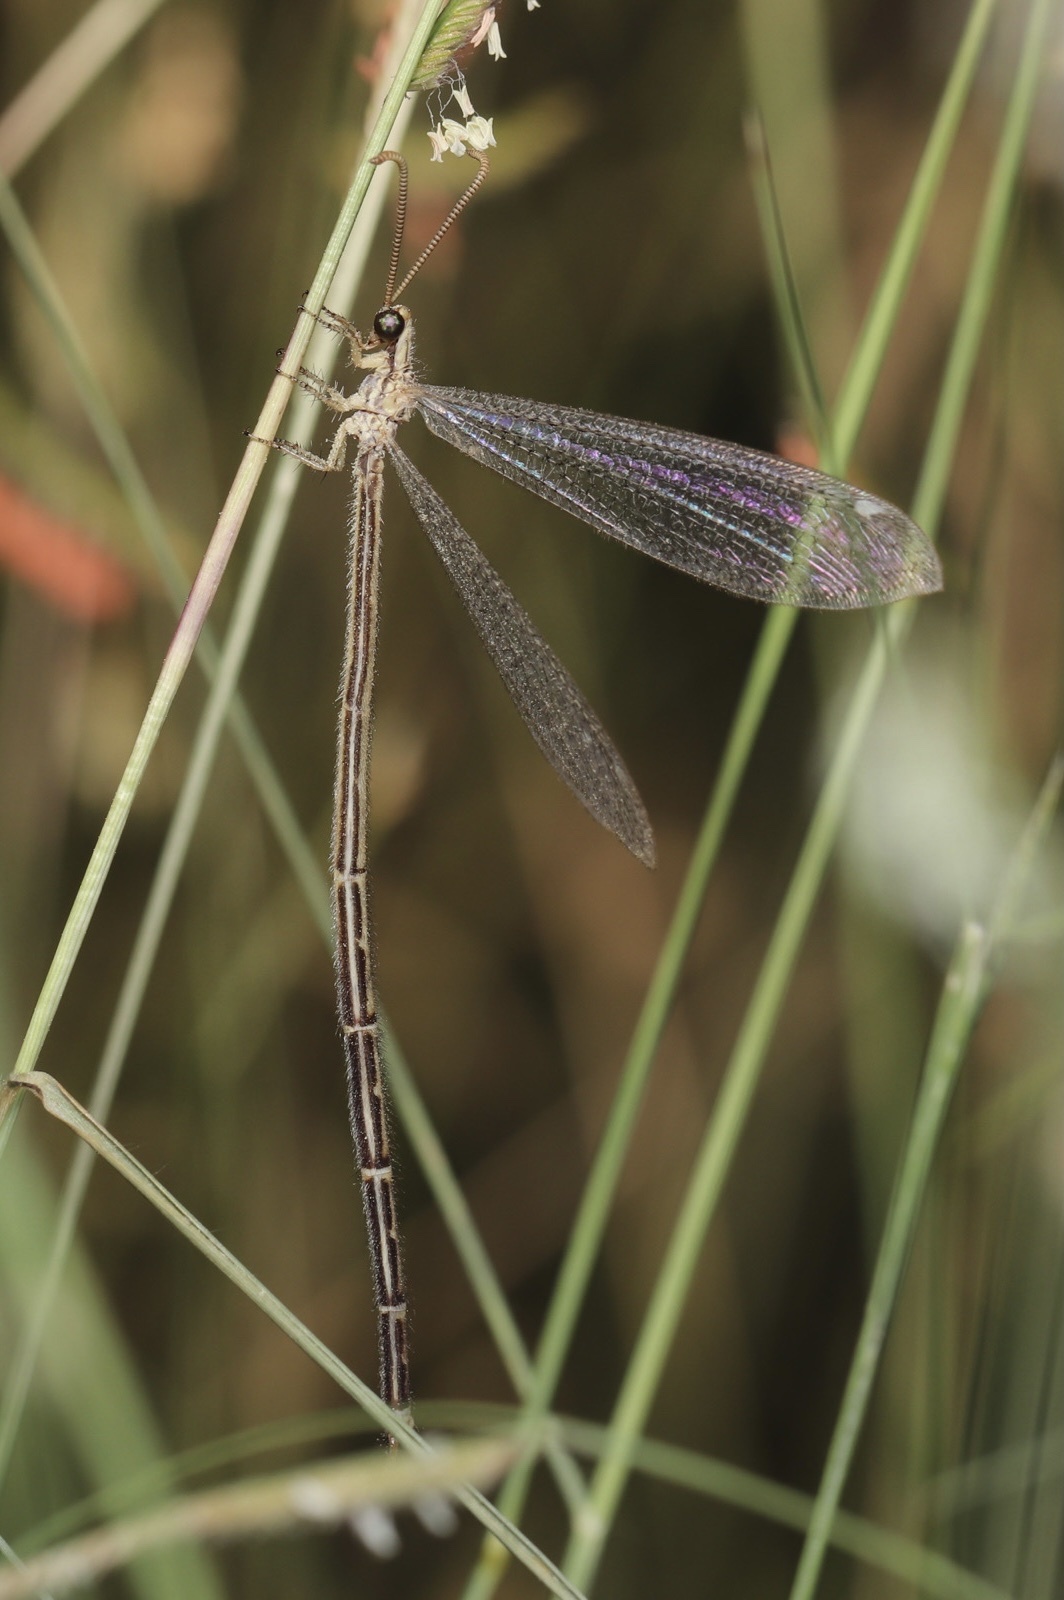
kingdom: Animalia
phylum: Arthropoda
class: Insecta
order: Neuroptera
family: Myrmeleontidae
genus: Brachynemurus
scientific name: Brachynemurus hubbardii
